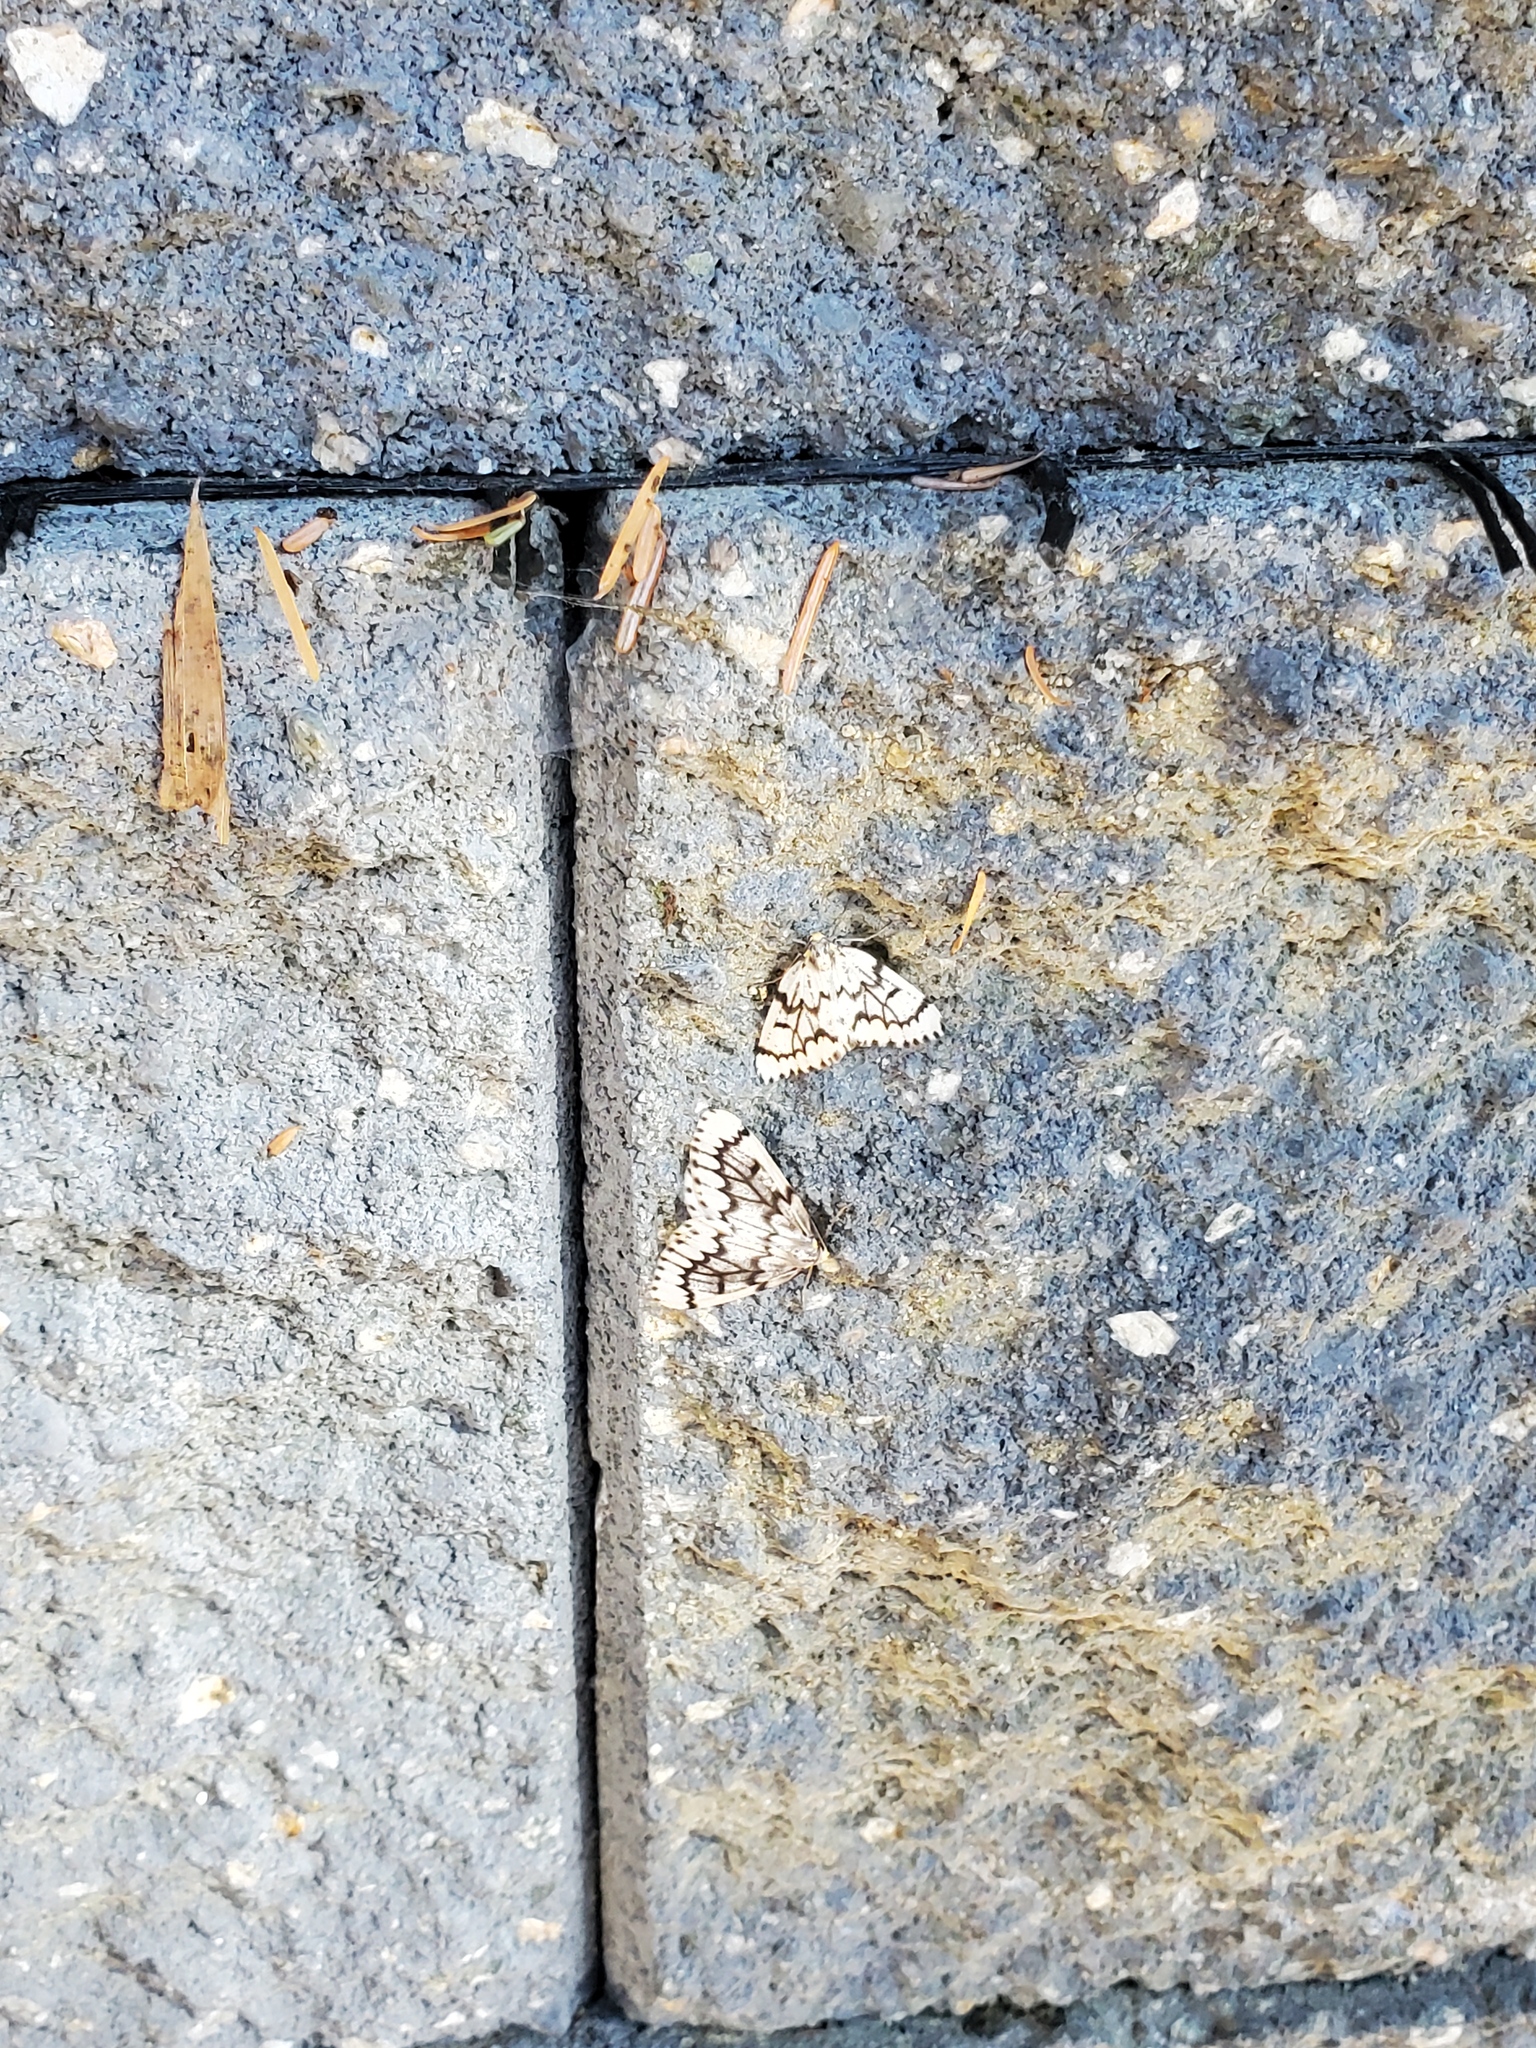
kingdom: Animalia
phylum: Arthropoda
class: Insecta
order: Lepidoptera
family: Geometridae
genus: Nepytia
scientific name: Nepytia phantasmaria
